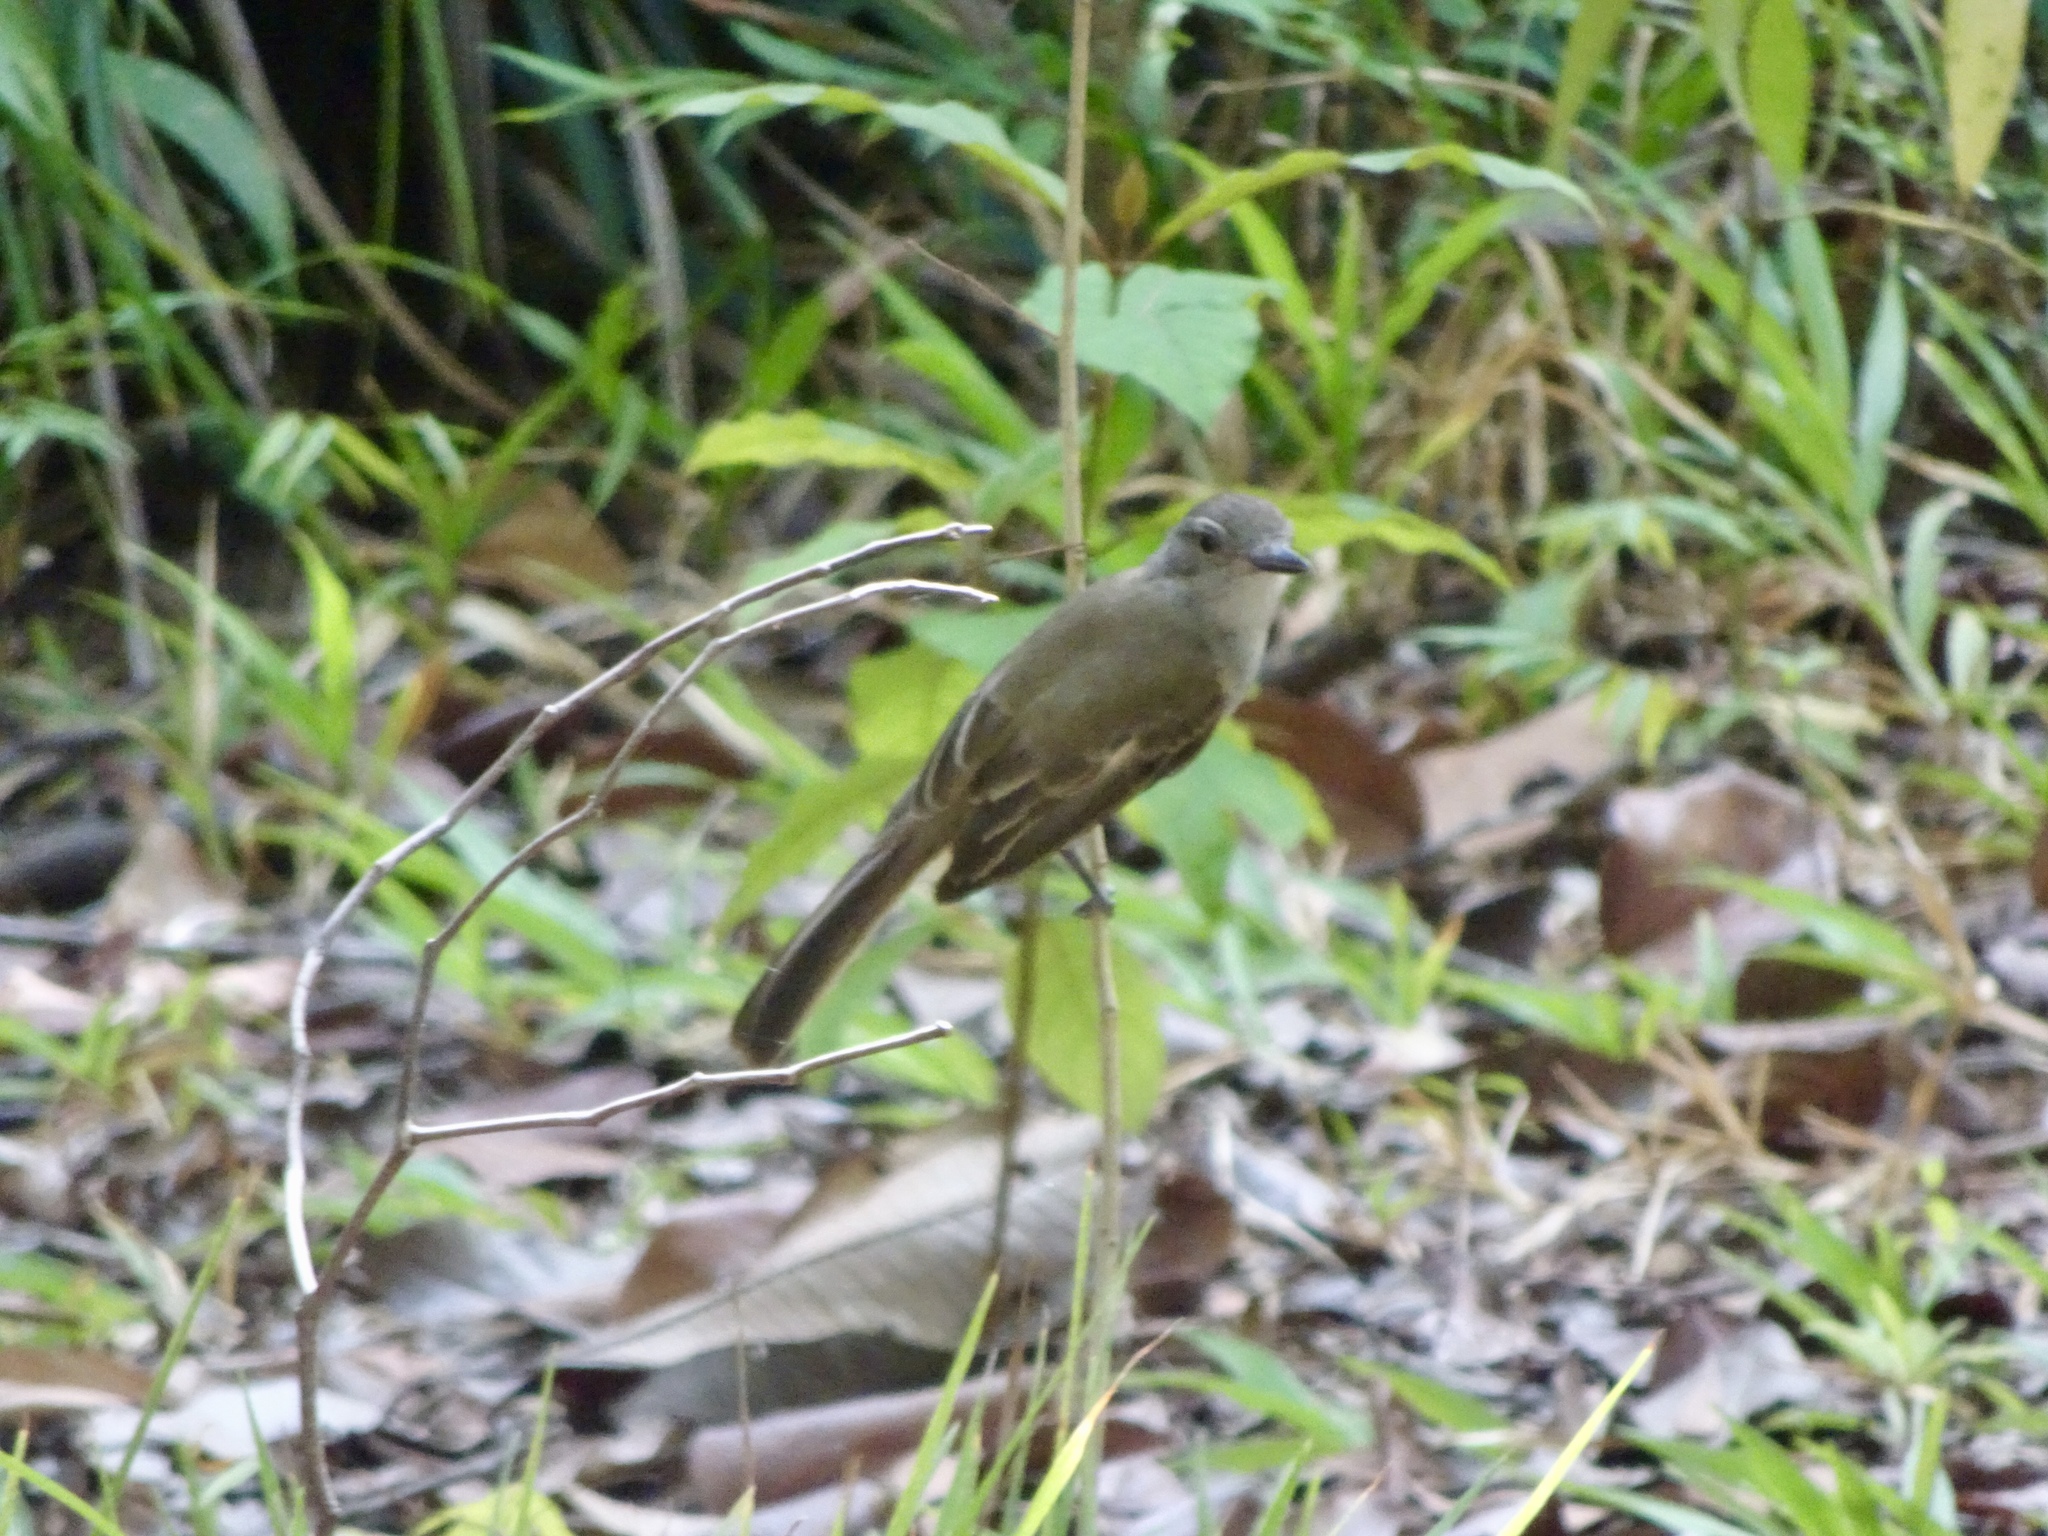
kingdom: Animalia
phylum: Chordata
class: Aves
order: Passeriformes
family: Tyrannidae
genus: Myiarchus
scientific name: Myiarchus panamensis
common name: Panama flycatcher
